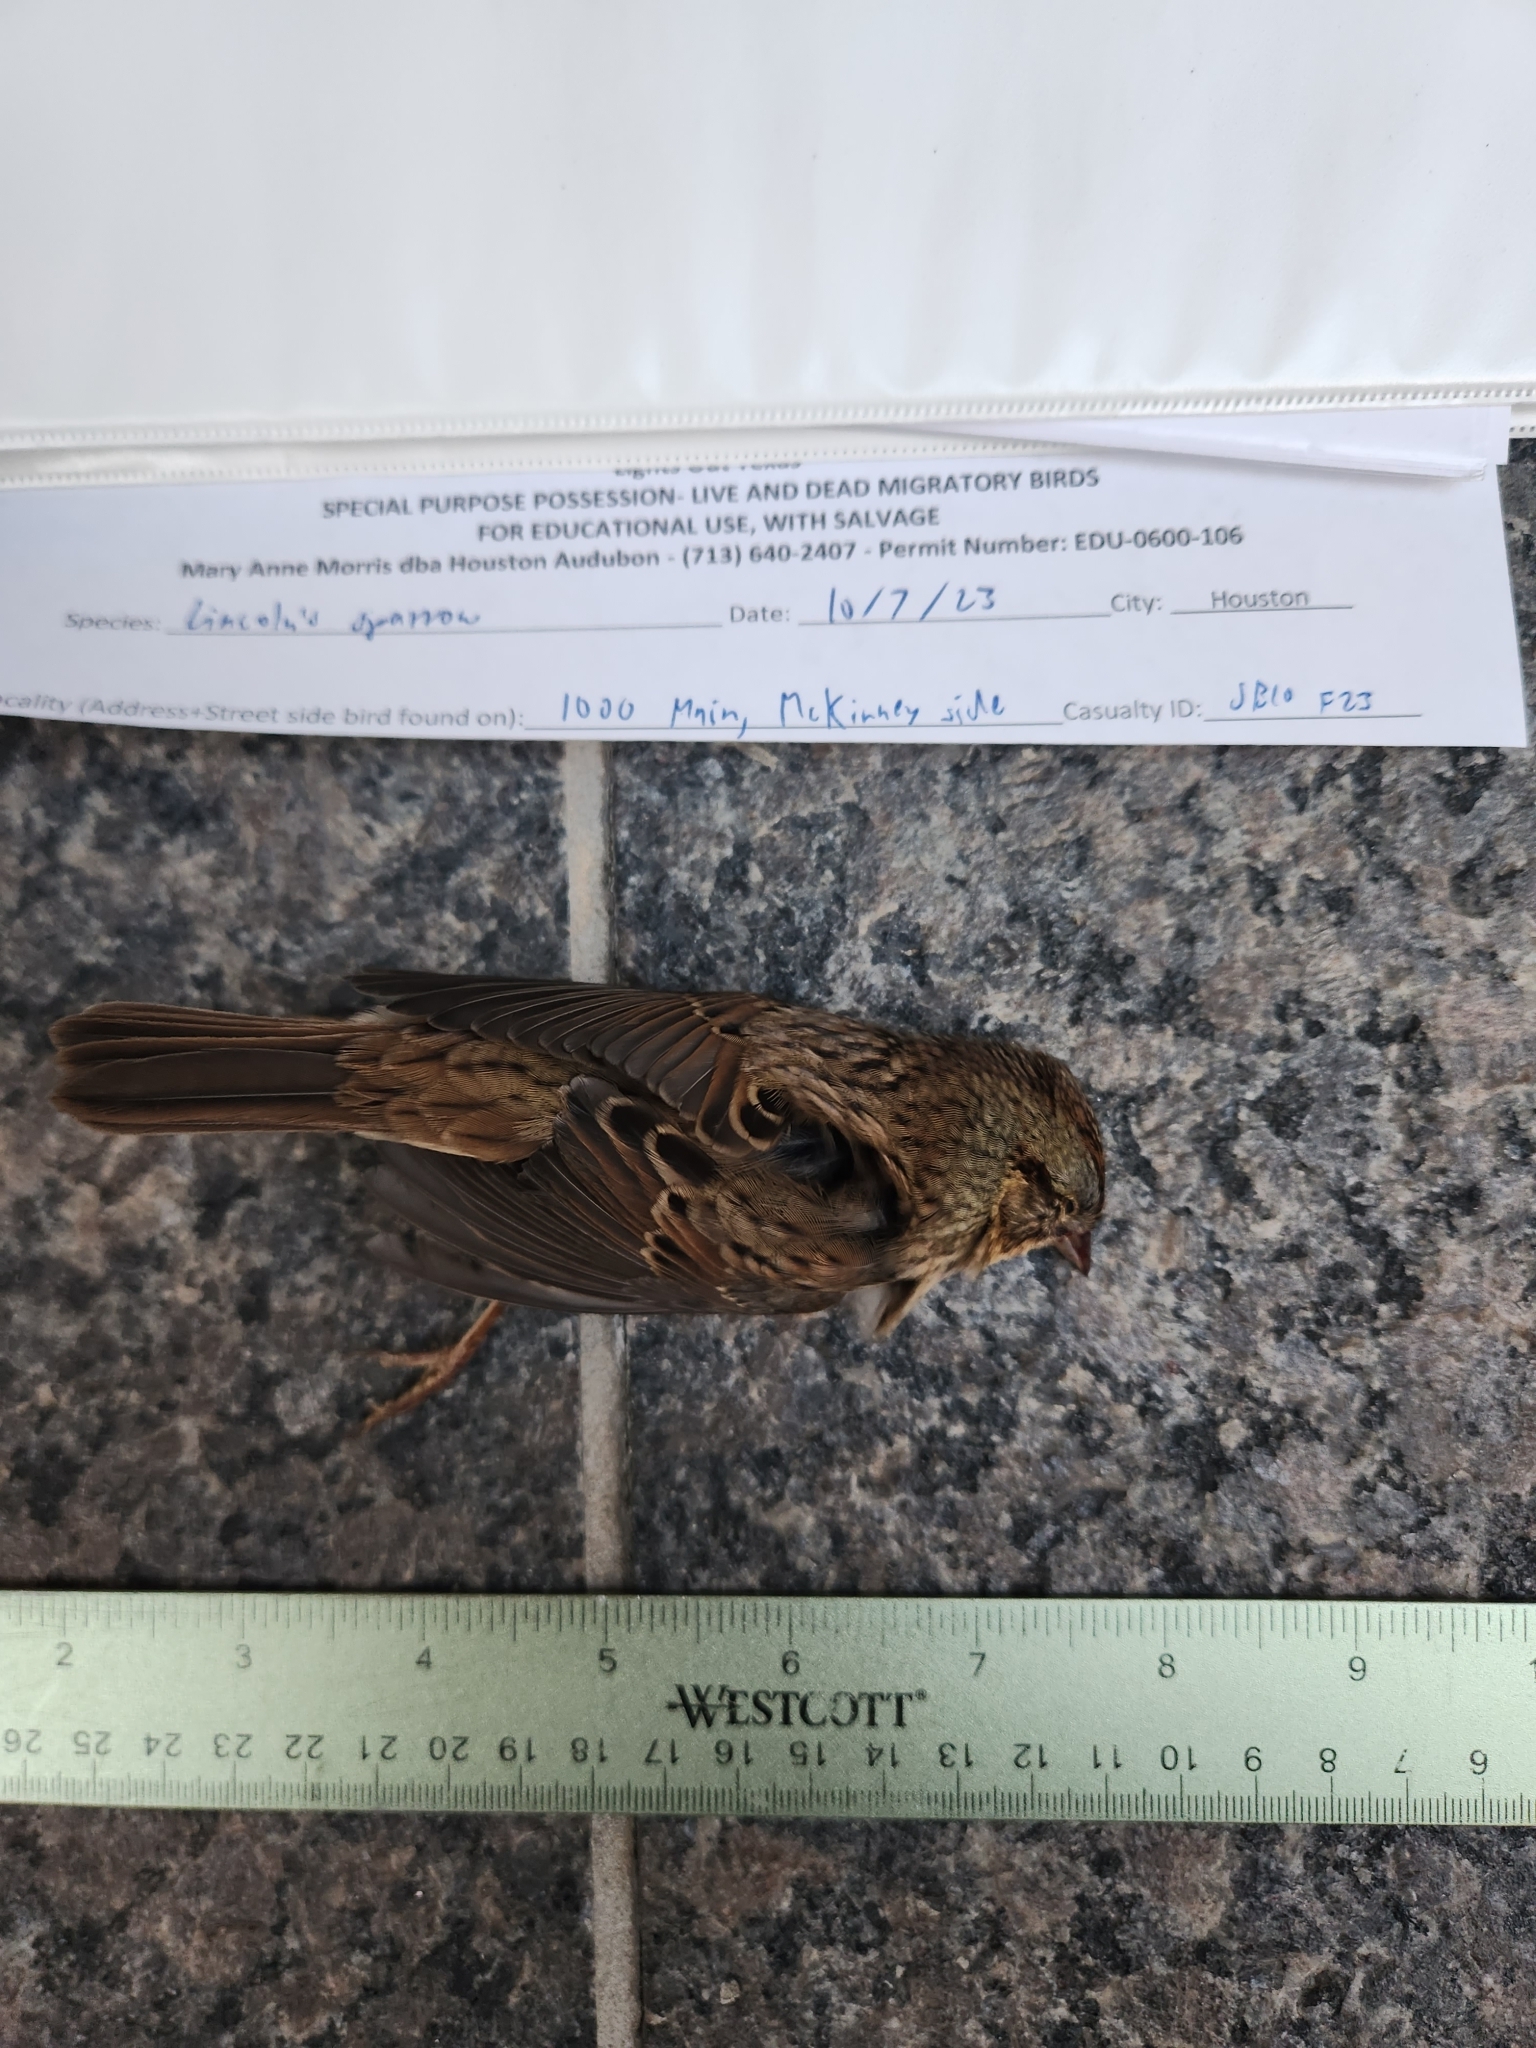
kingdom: Animalia
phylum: Chordata
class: Aves
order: Passeriformes
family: Passerellidae
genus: Melospiza
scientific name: Melospiza lincolnii
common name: Lincoln's sparrow
